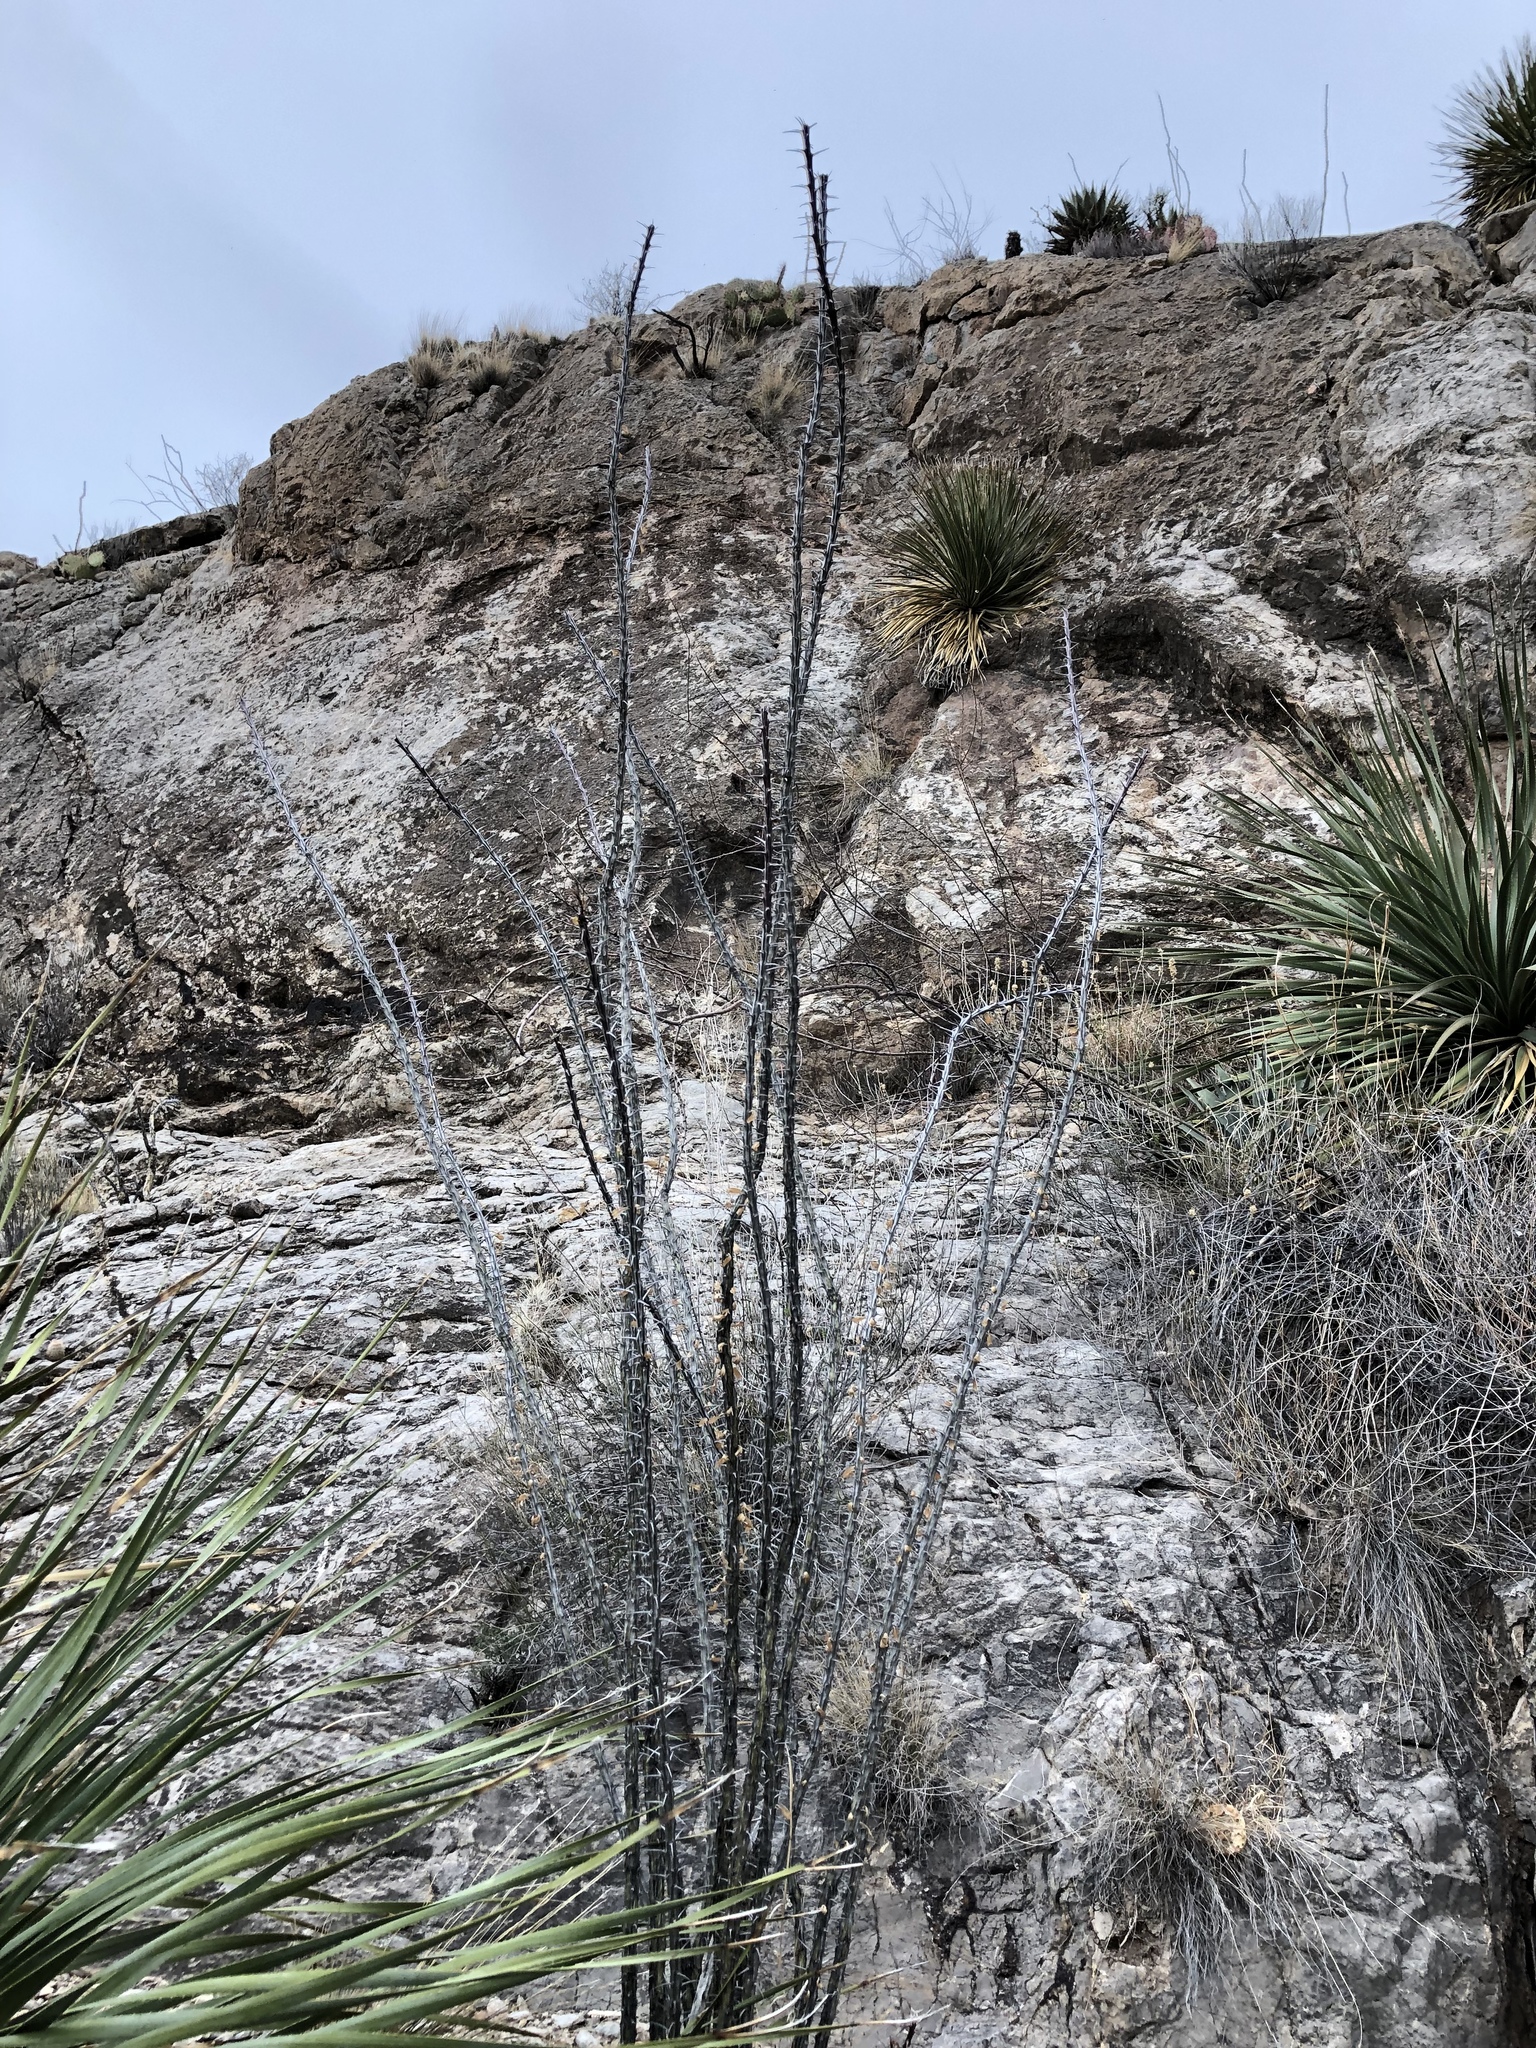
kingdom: Plantae
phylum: Tracheophyta
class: Magnoliopsida
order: Ericales
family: Fouquieriaceae
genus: Fouquieria
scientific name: Fouquieria splendens
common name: Vine-cactus
